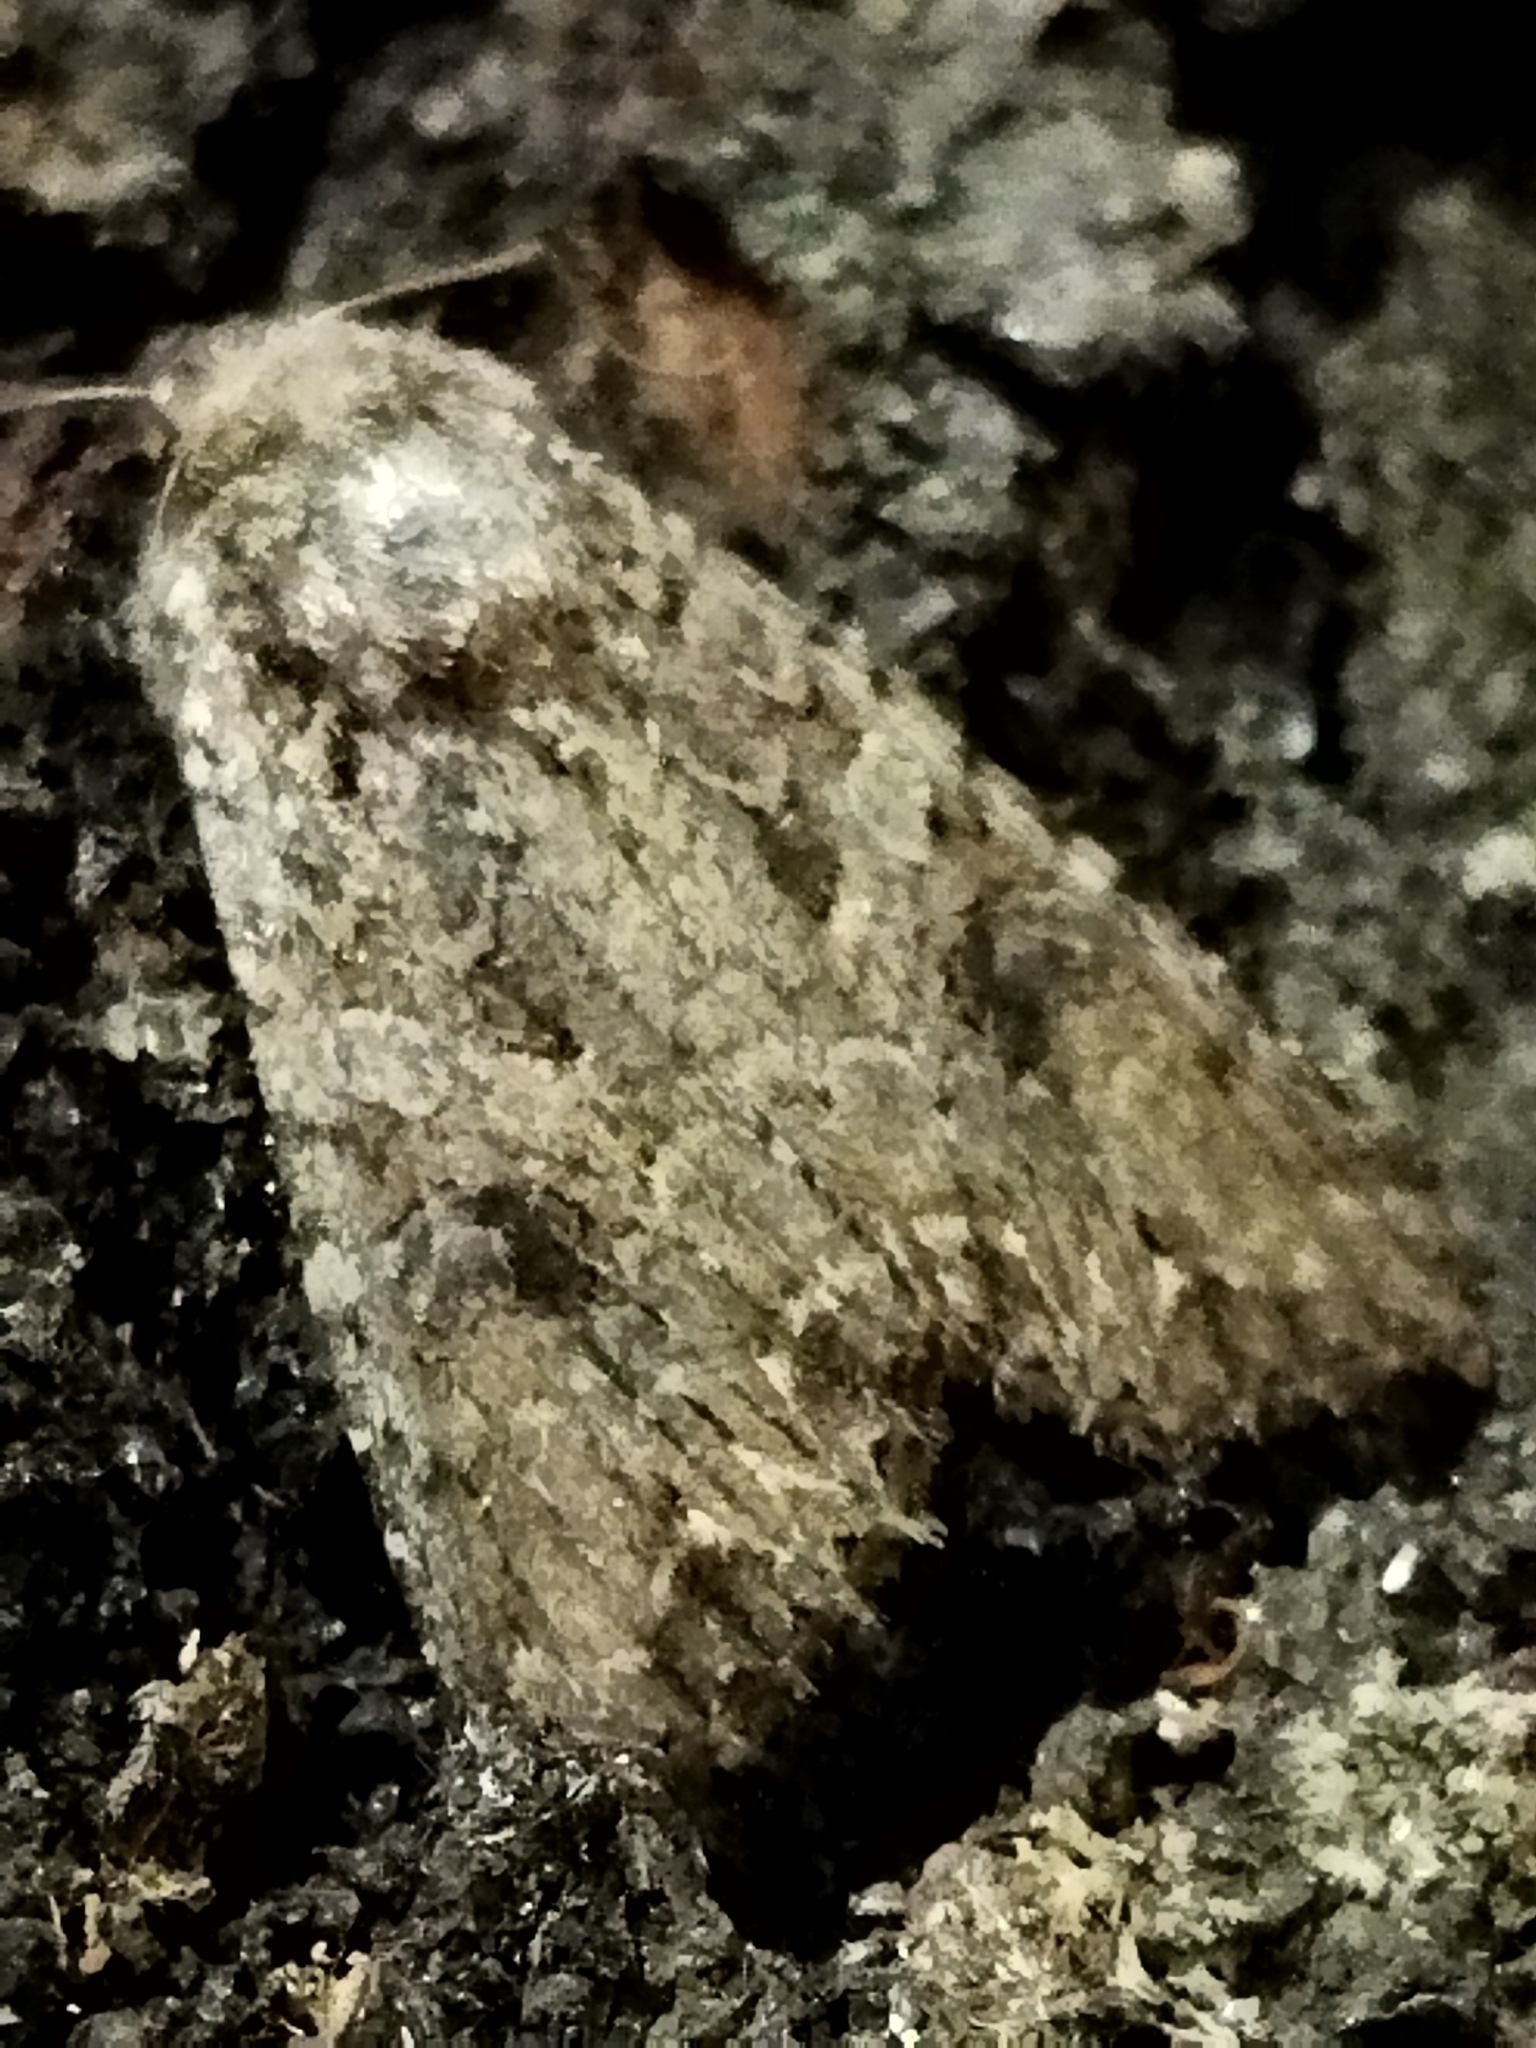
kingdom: Animalia
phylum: Arthropoda
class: Insecta
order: Lepidoptera
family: Noctuidae
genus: Anarta
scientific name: Anarta trifolii
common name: Clover cutworm moth
